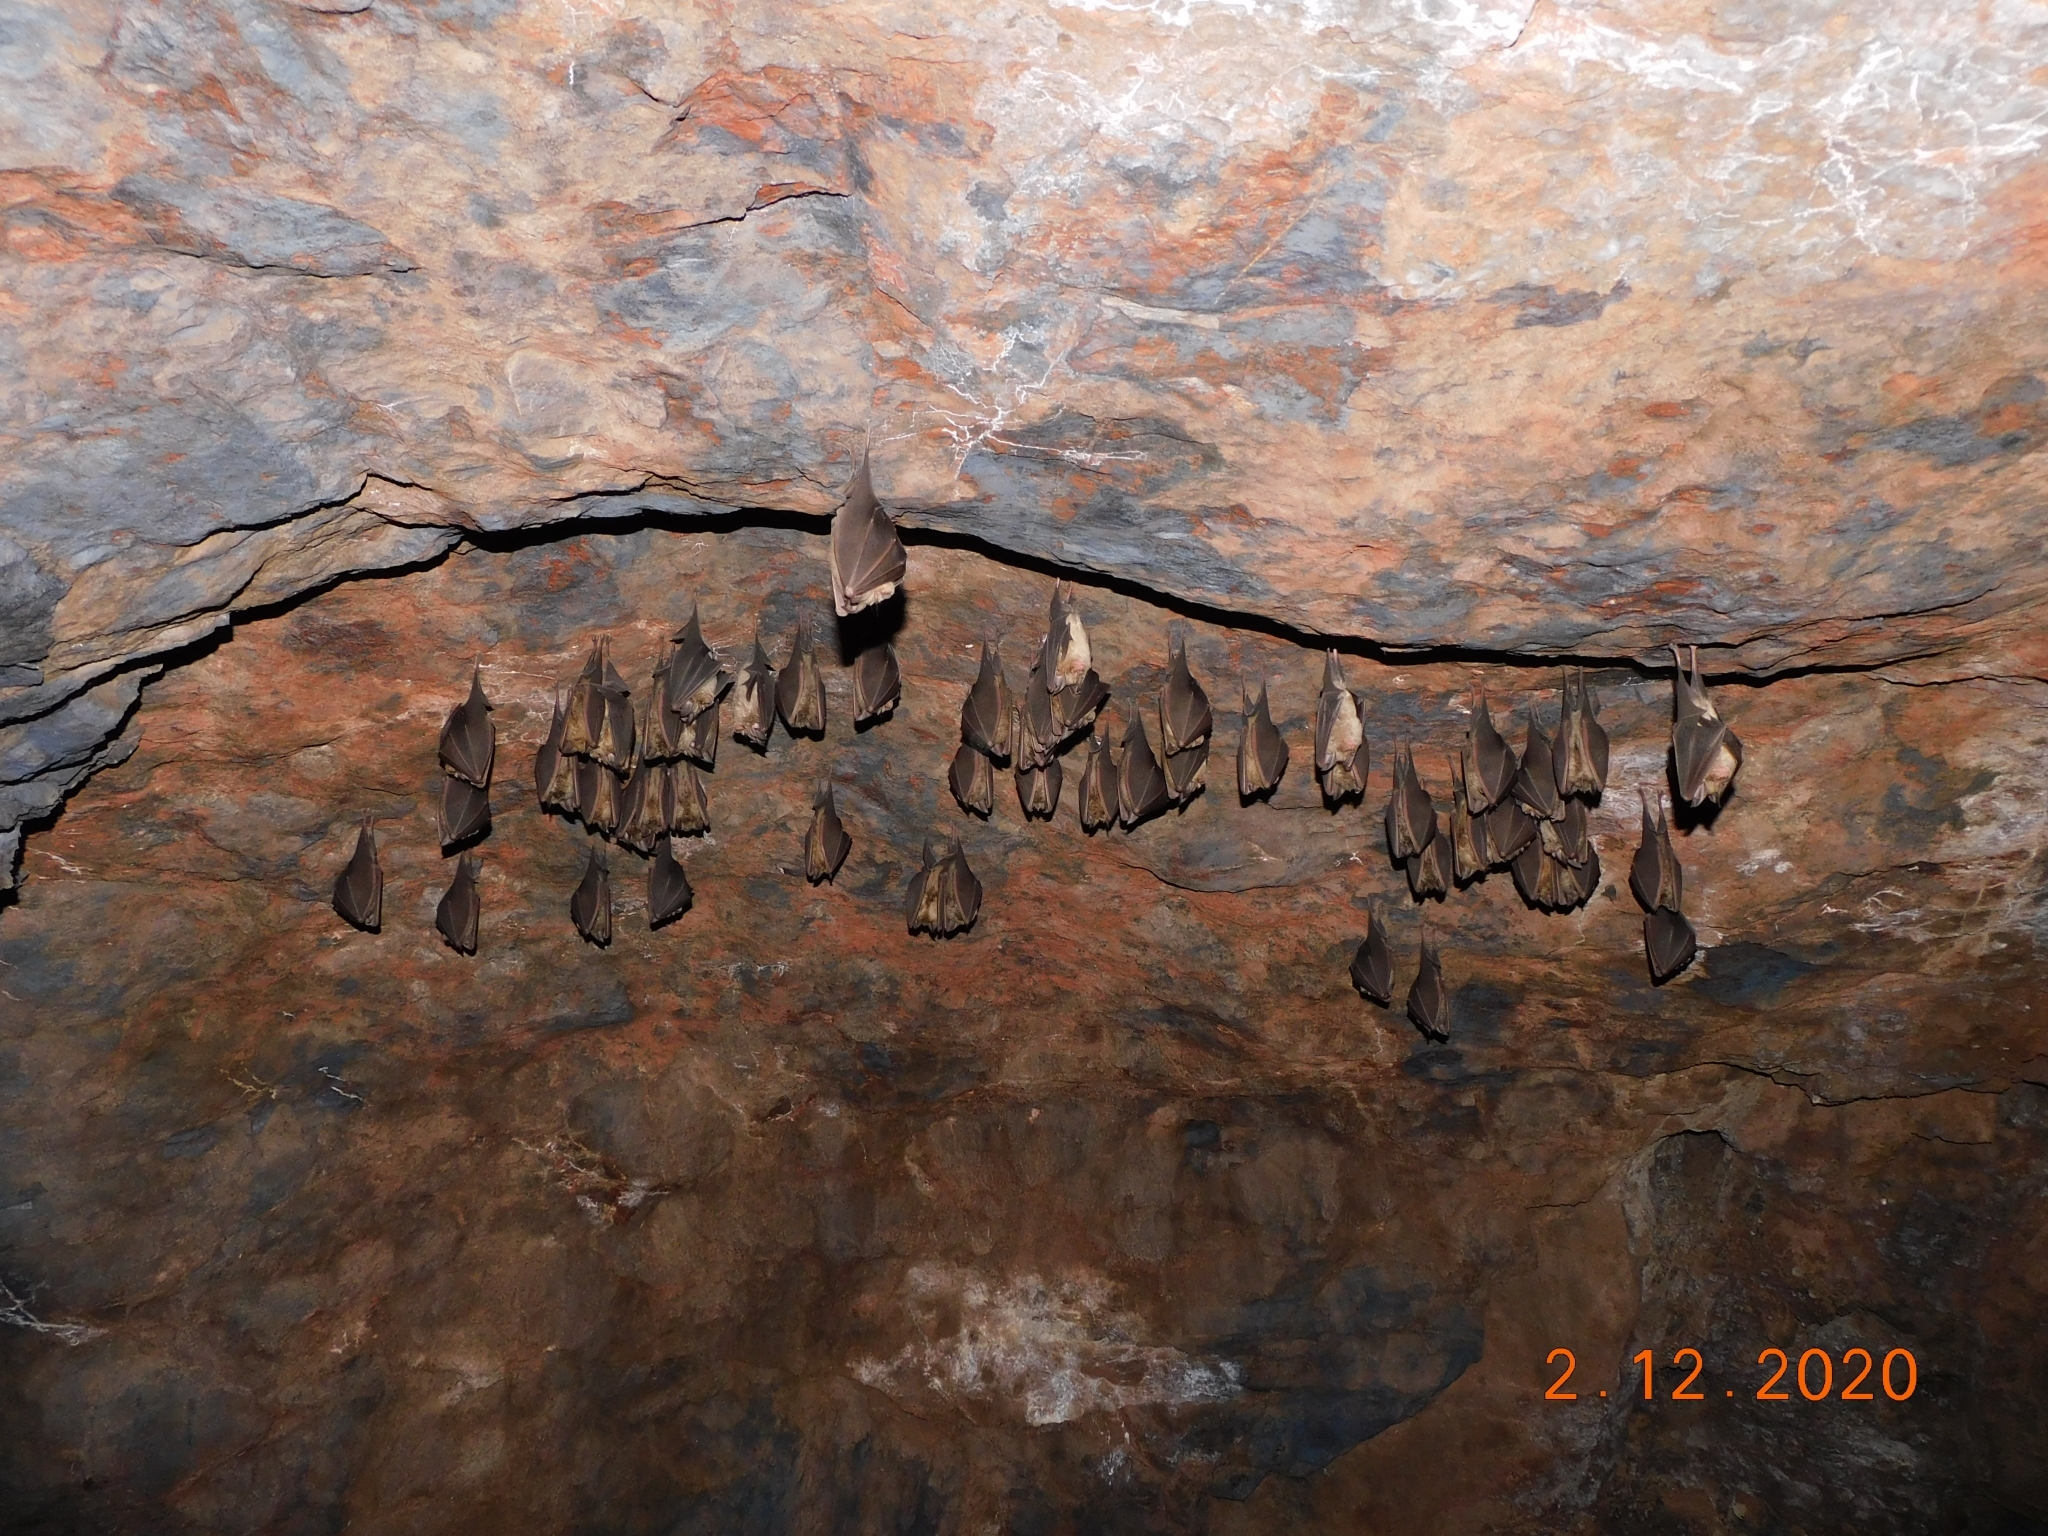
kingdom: Animalia
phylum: Chordata
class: Mammalia
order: Chiroptera
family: Rhinolophidae
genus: Rhinolophus
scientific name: Rhinolophus ferrumequinum
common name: Greater horseshoe bat
